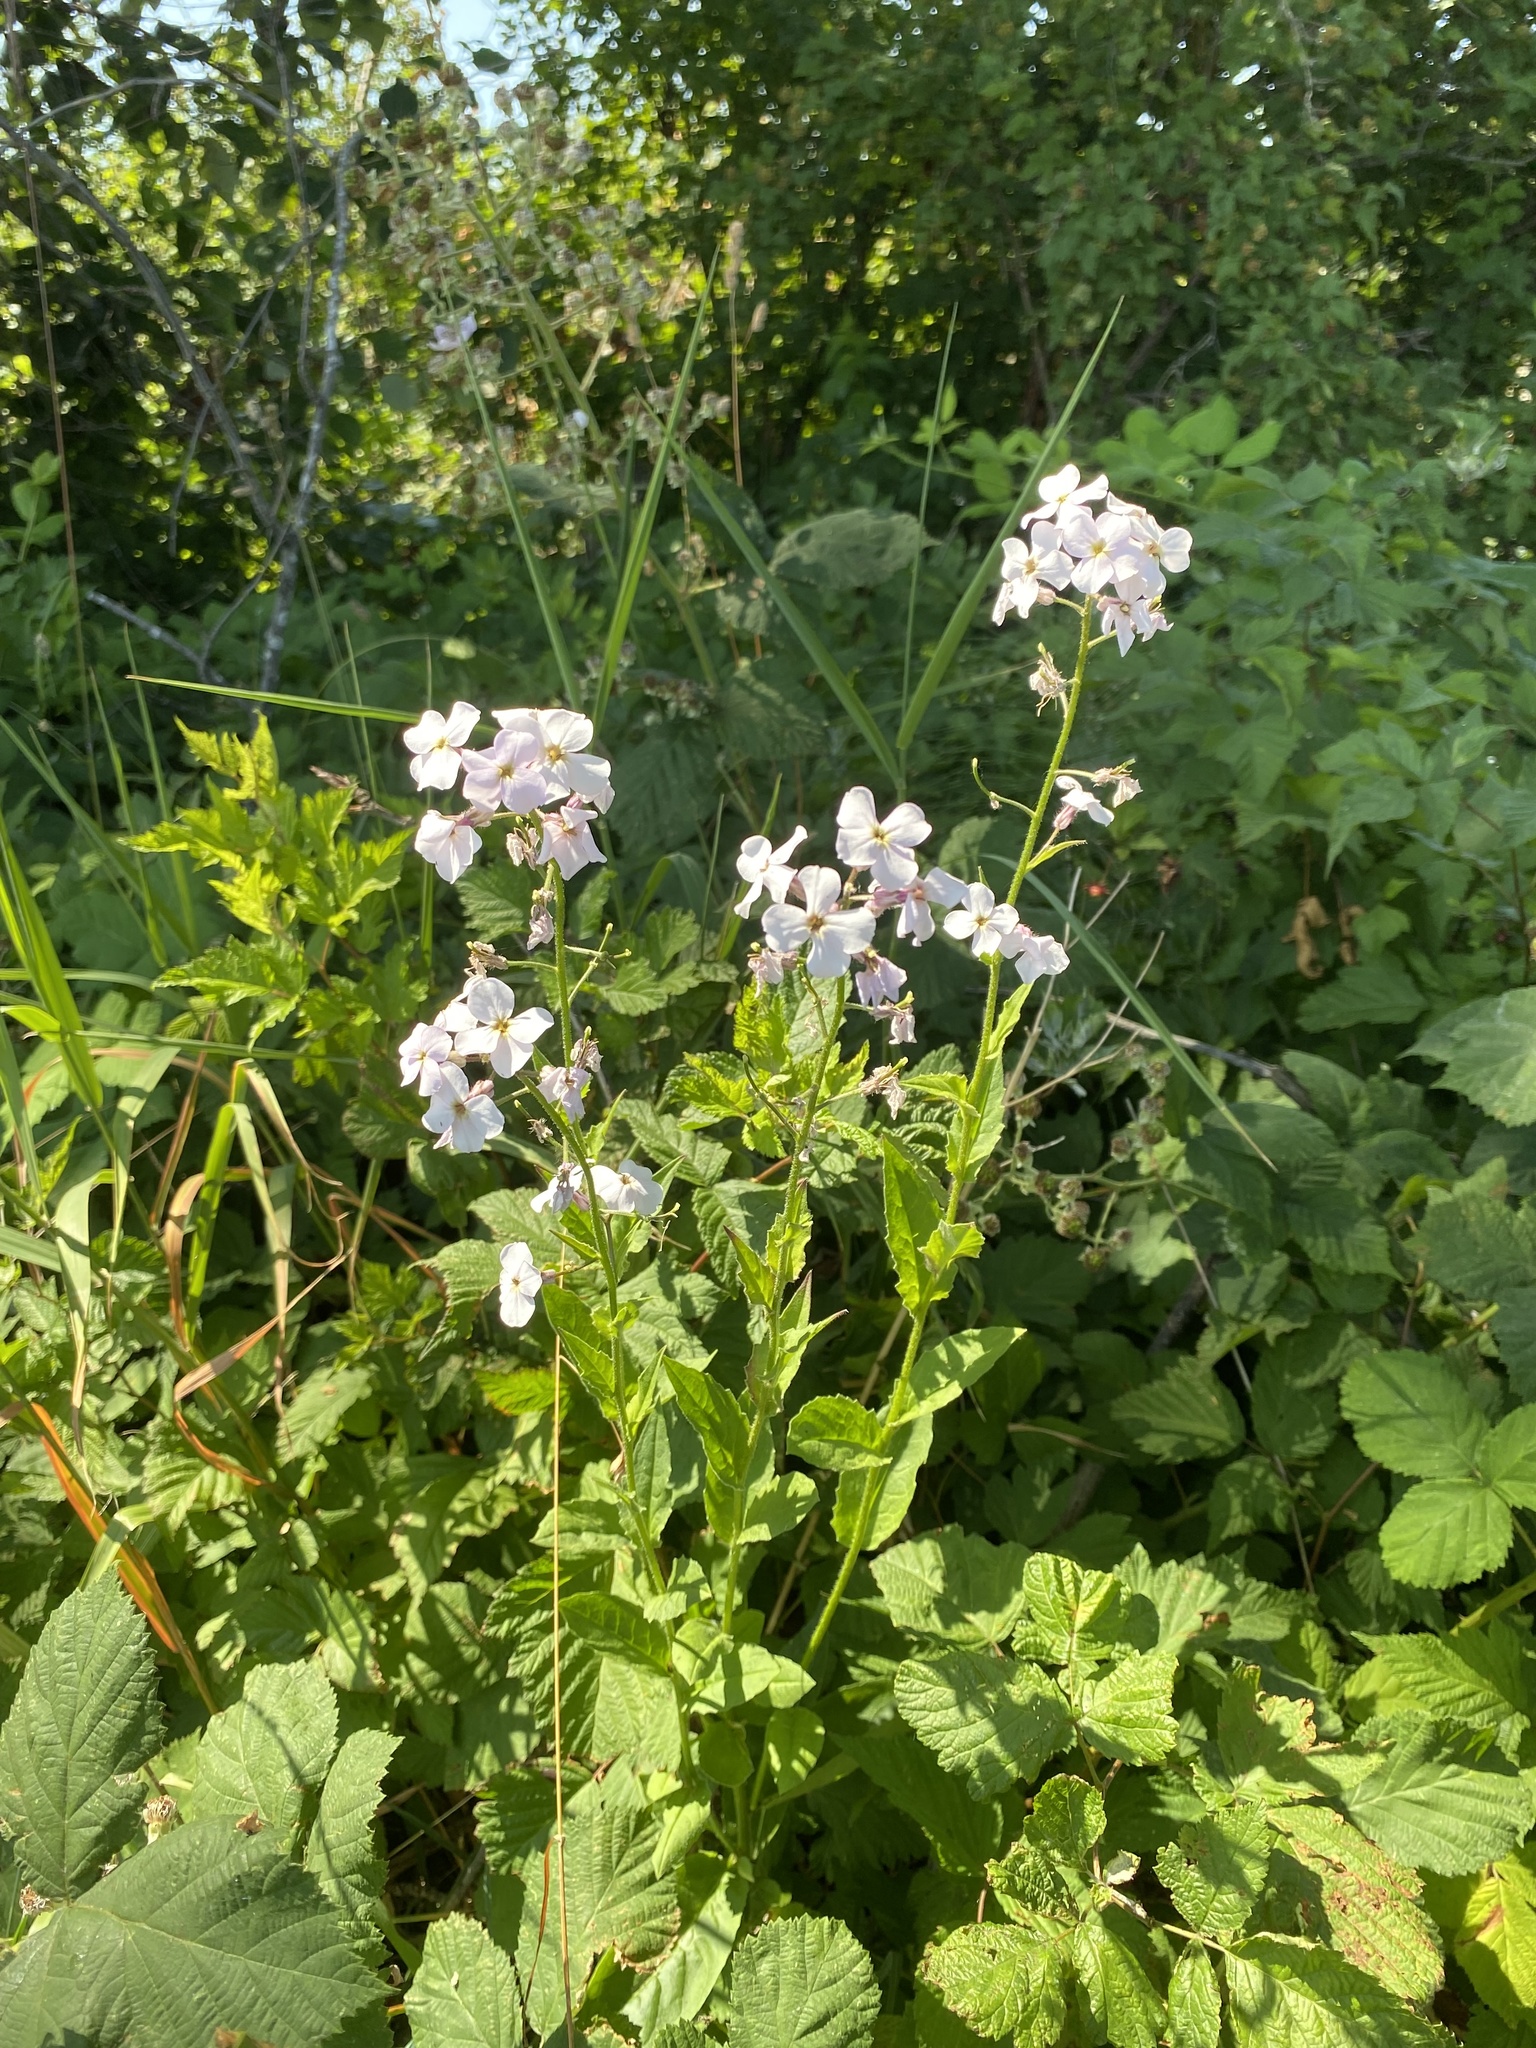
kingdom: Plantae
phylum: Tracheophyta
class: Magnoliopsida
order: Brassicales
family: Brassicaceae
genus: Hesperis
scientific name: Hesperis matronalis
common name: Dame's-violet
